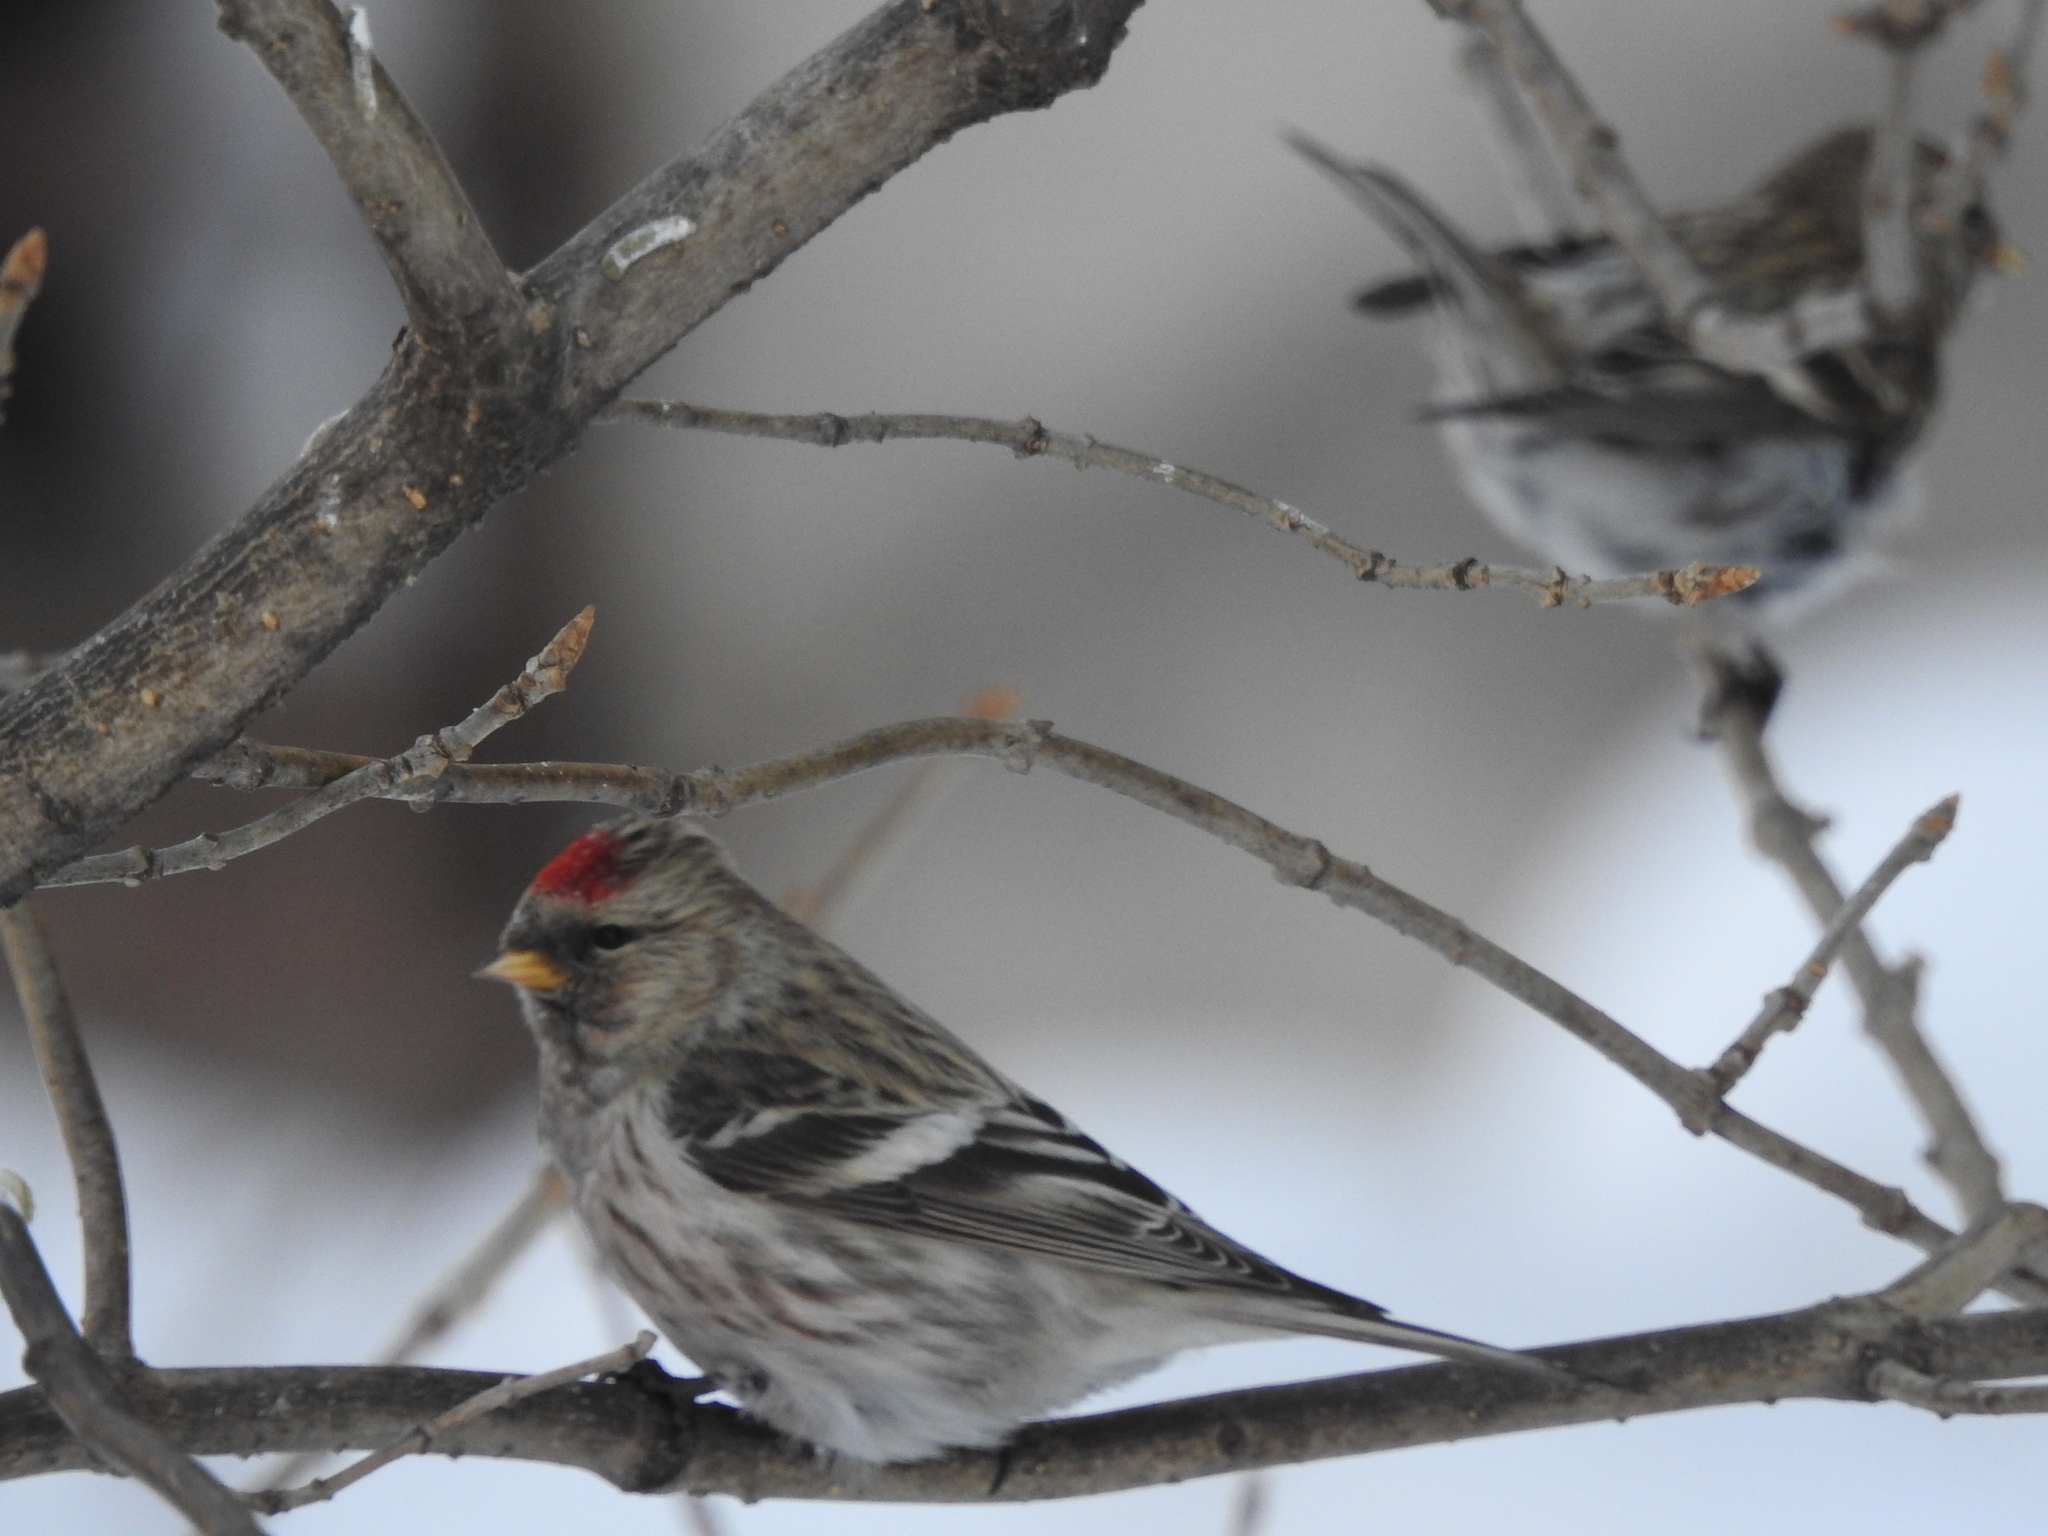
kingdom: Animalia
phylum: Chordata
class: Aves
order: Passeriformes
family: Fringillidae
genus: Acanthis
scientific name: Acanthis flammea
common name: Common redpoll
